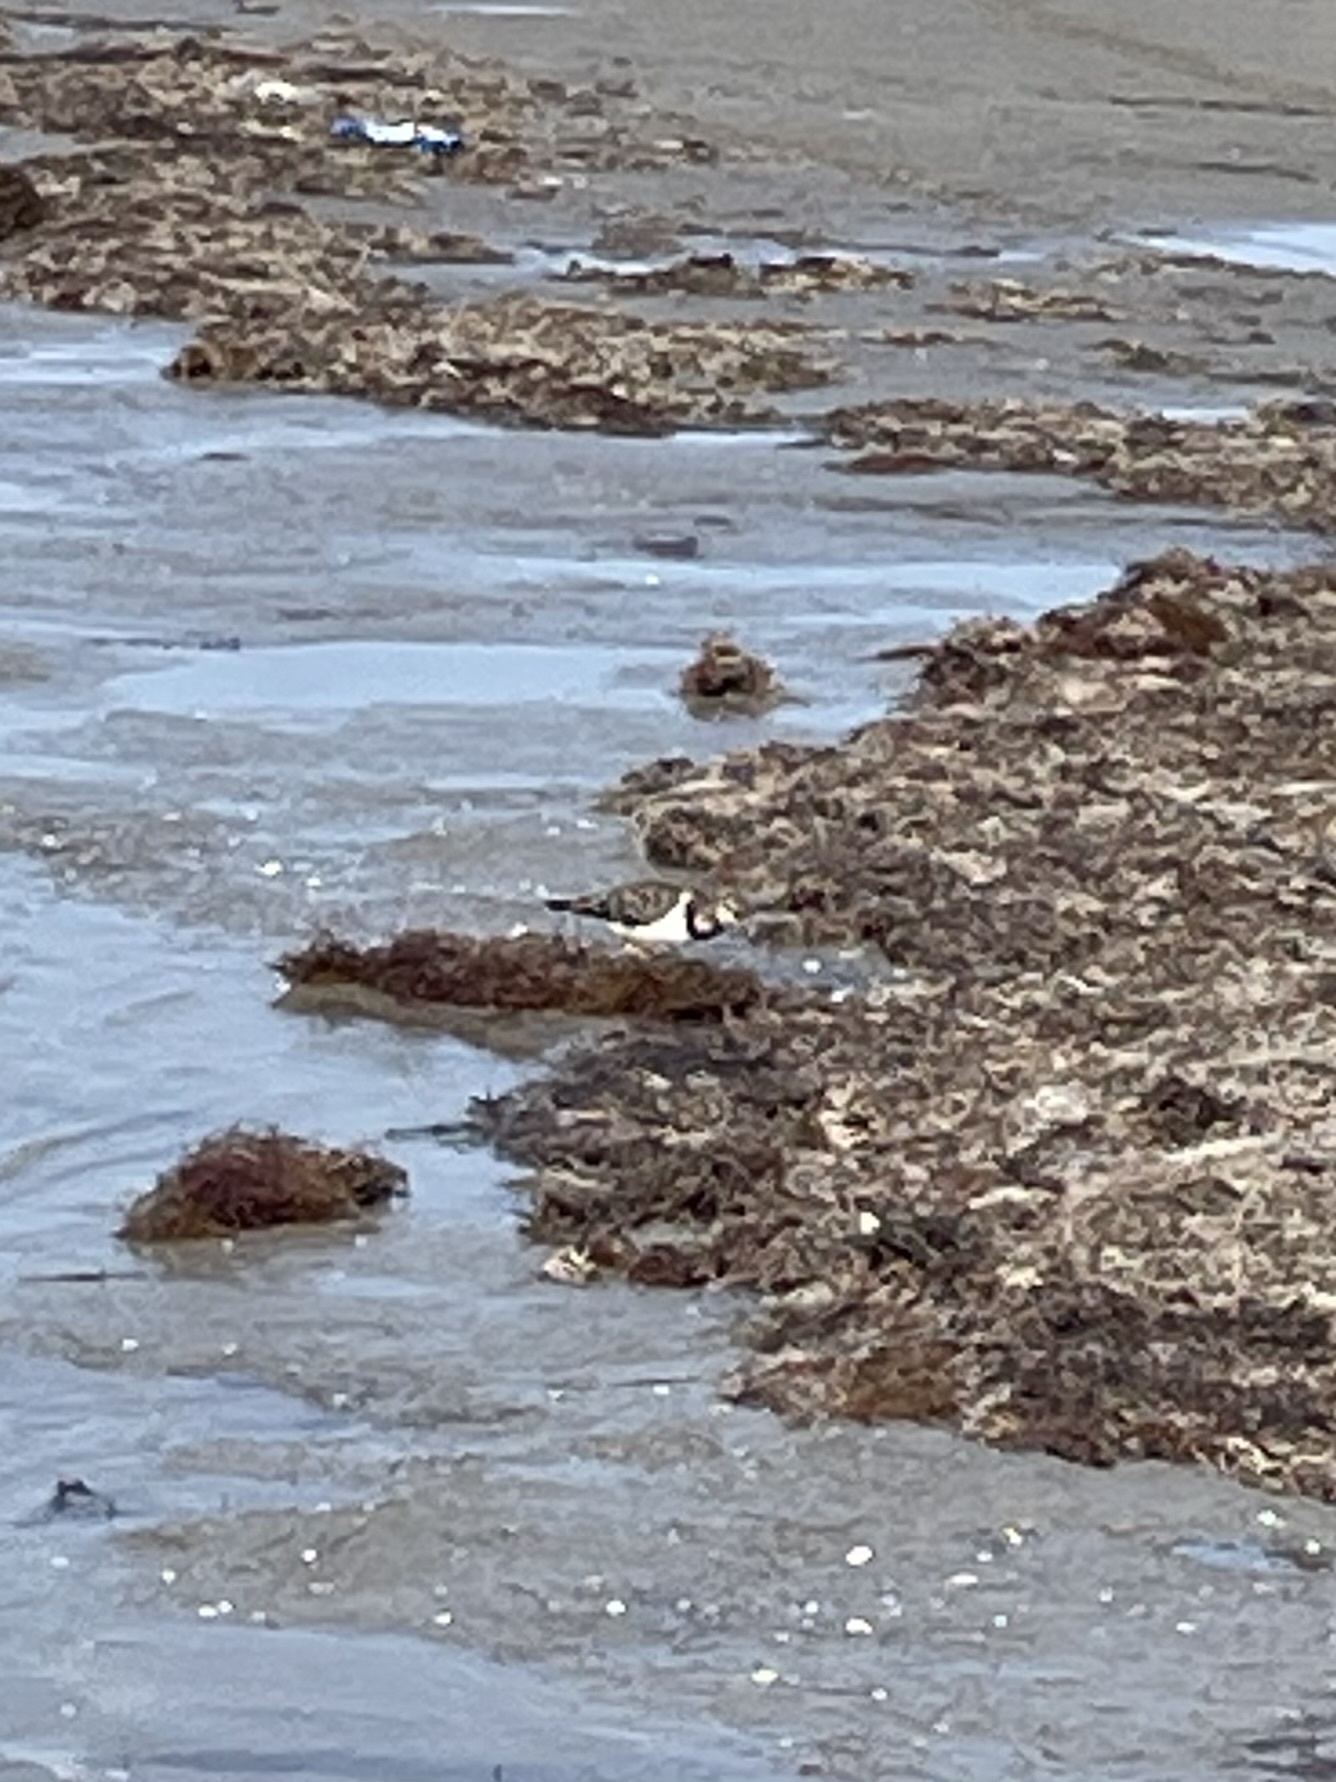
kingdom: Animalia
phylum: Chordata
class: Aves
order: Charadriiformes
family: Scolopacidae
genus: Arenaria
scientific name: Arenaria interpres
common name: Ruddy turnstone
